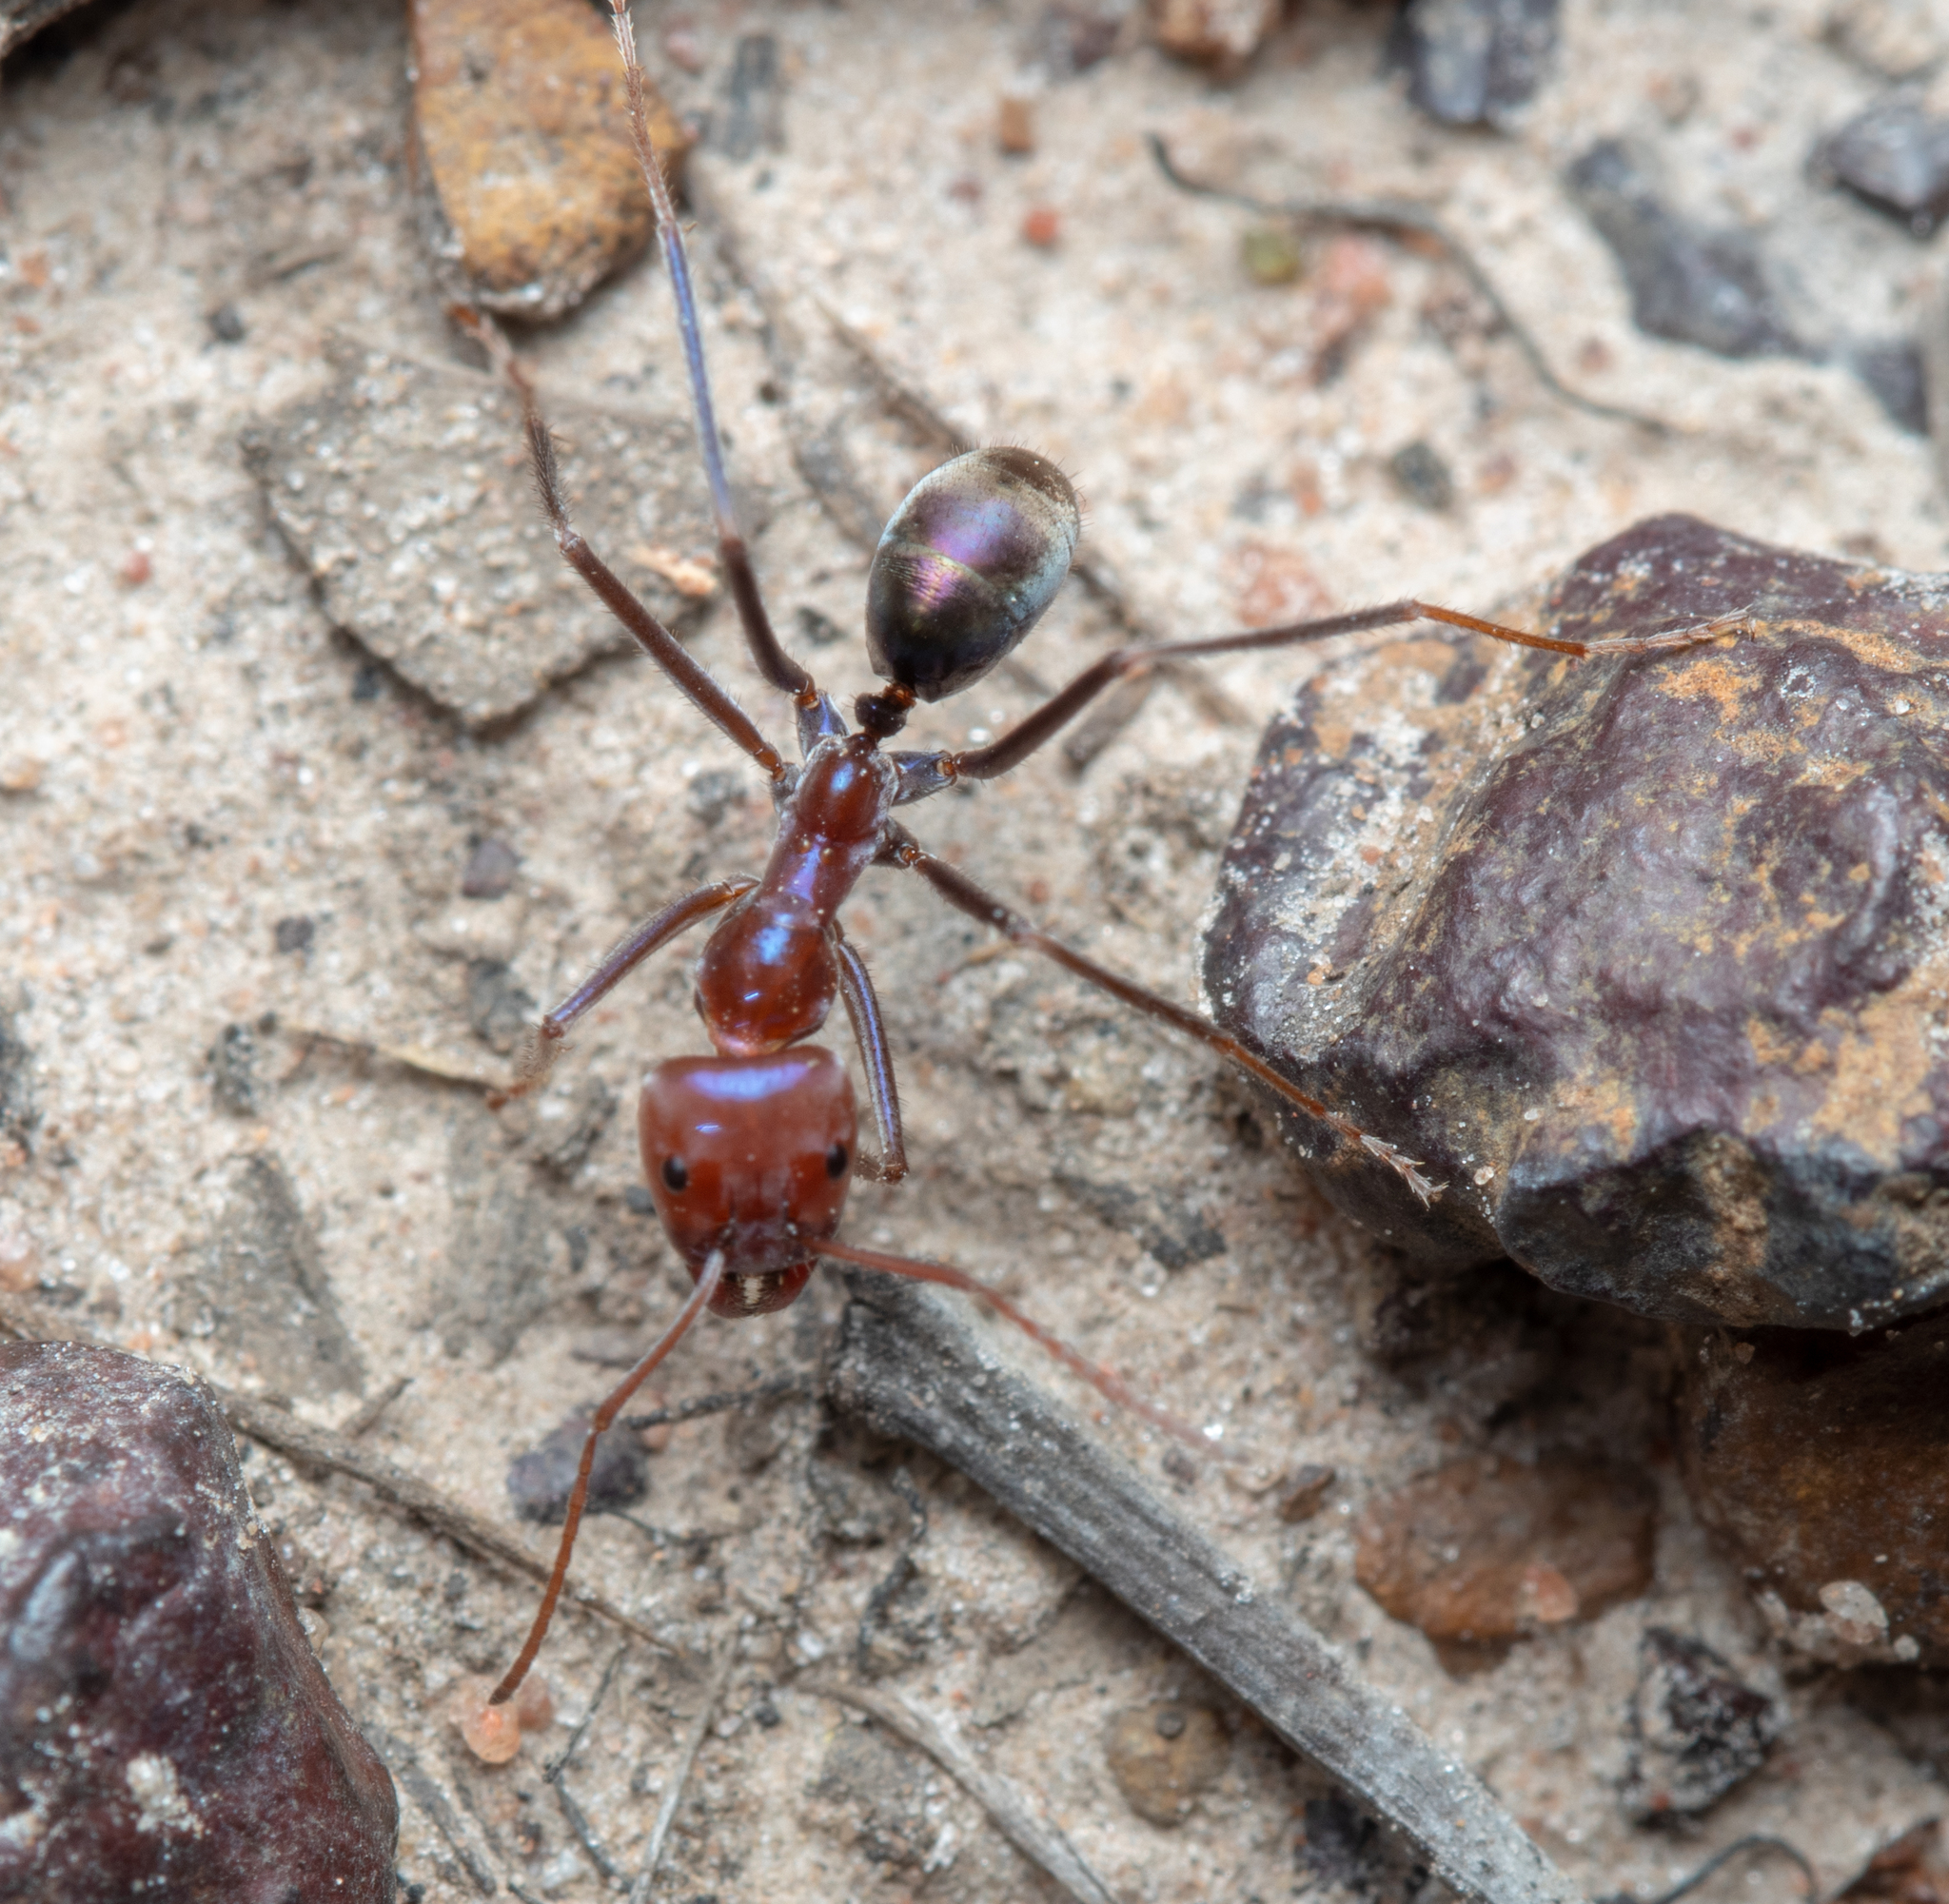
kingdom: Animalia
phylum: Arthropoda
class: Insecta
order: Hymenoptera
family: Formicidae
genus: Iridomyrmex
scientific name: Iridomyrmex purpureus
